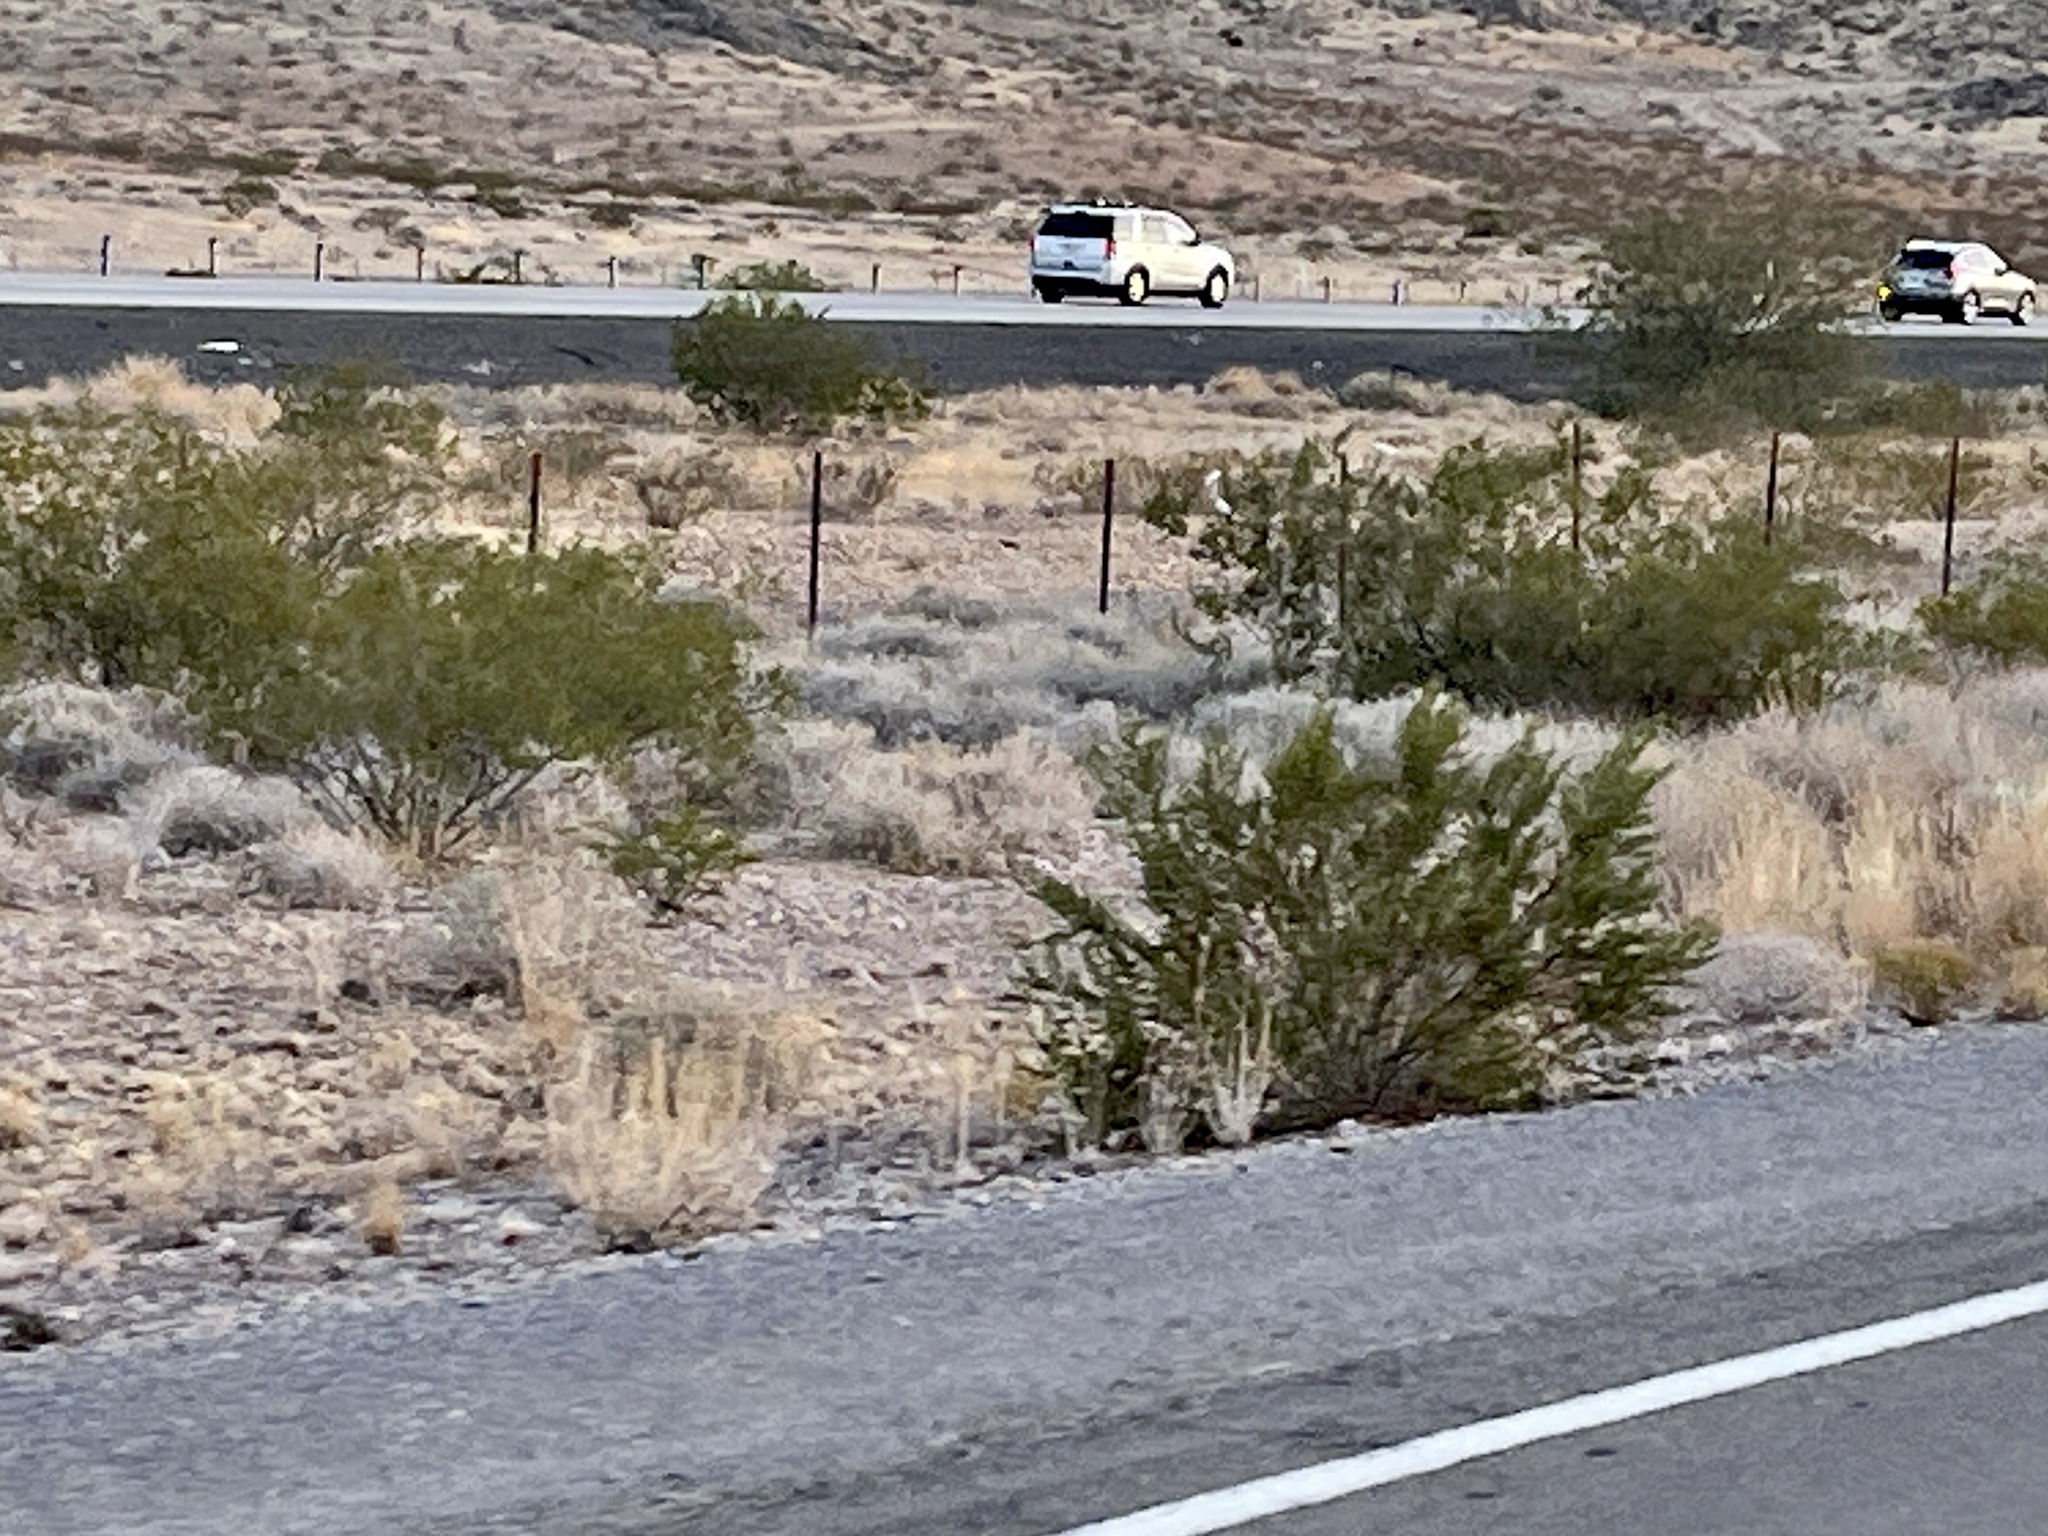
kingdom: Plantae
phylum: Tracheophyta
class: Magnoliopsida
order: Zygophyllales
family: Zygophyllaceae
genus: Larrea
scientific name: Larrea tridentata
